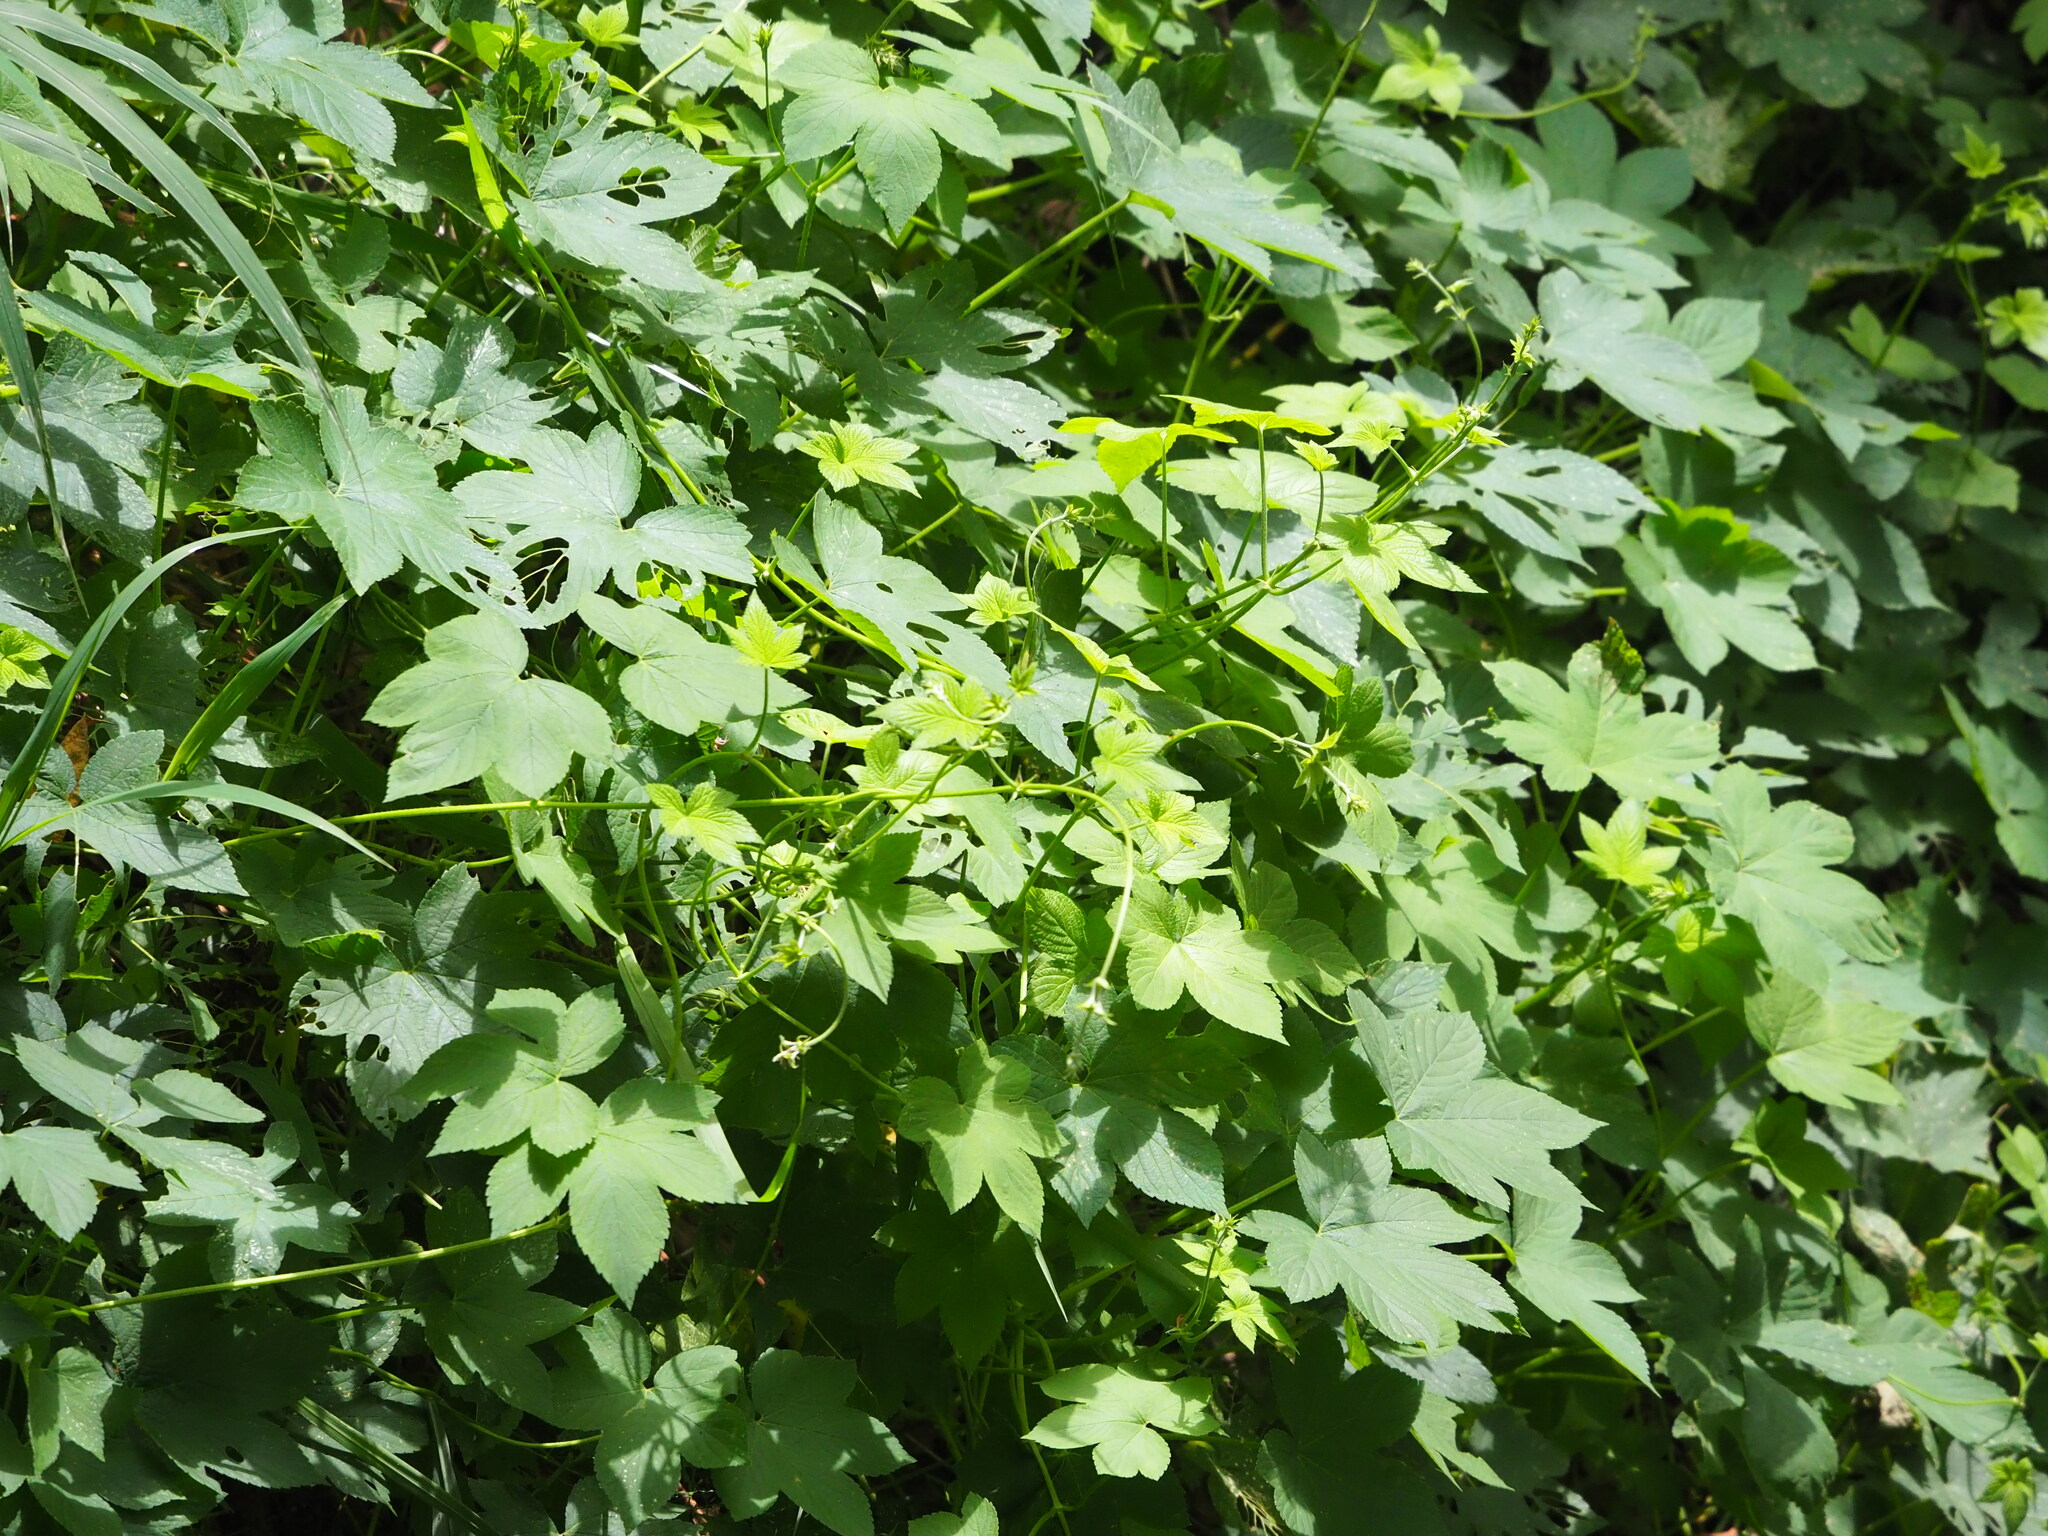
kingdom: Plantae
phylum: Tracheophyta
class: Magnoliopsida
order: Rosales
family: Cannabaceae
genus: Humulus
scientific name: Humulus scandens
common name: Japanese hop
